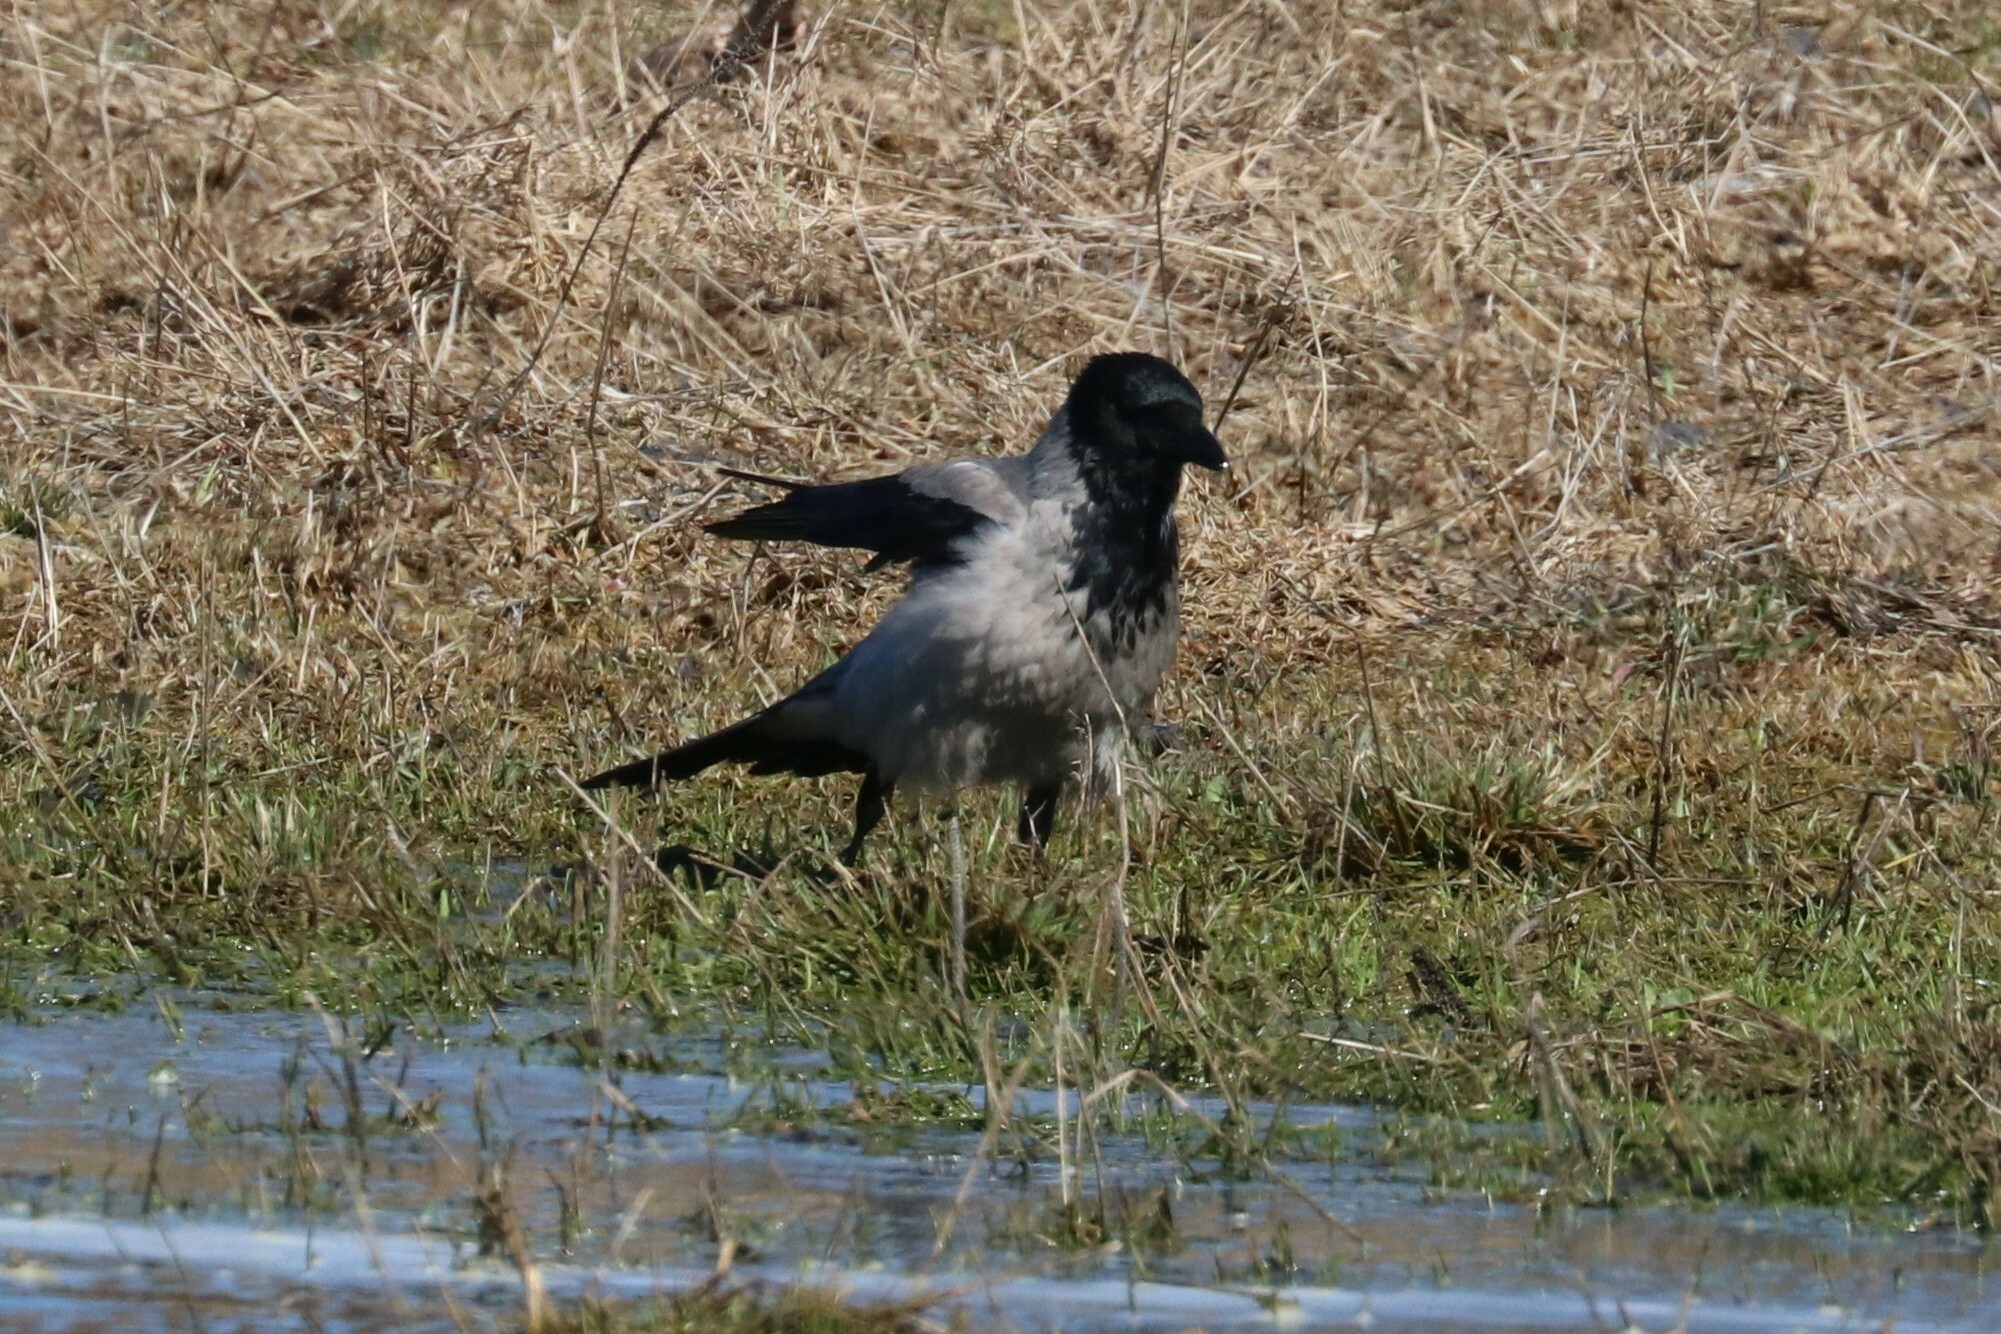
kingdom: Animalia
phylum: Chordata
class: Aves
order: Passeriformes
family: Corvidae
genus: Corvus
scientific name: Corvus cornix
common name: Hooded crow
